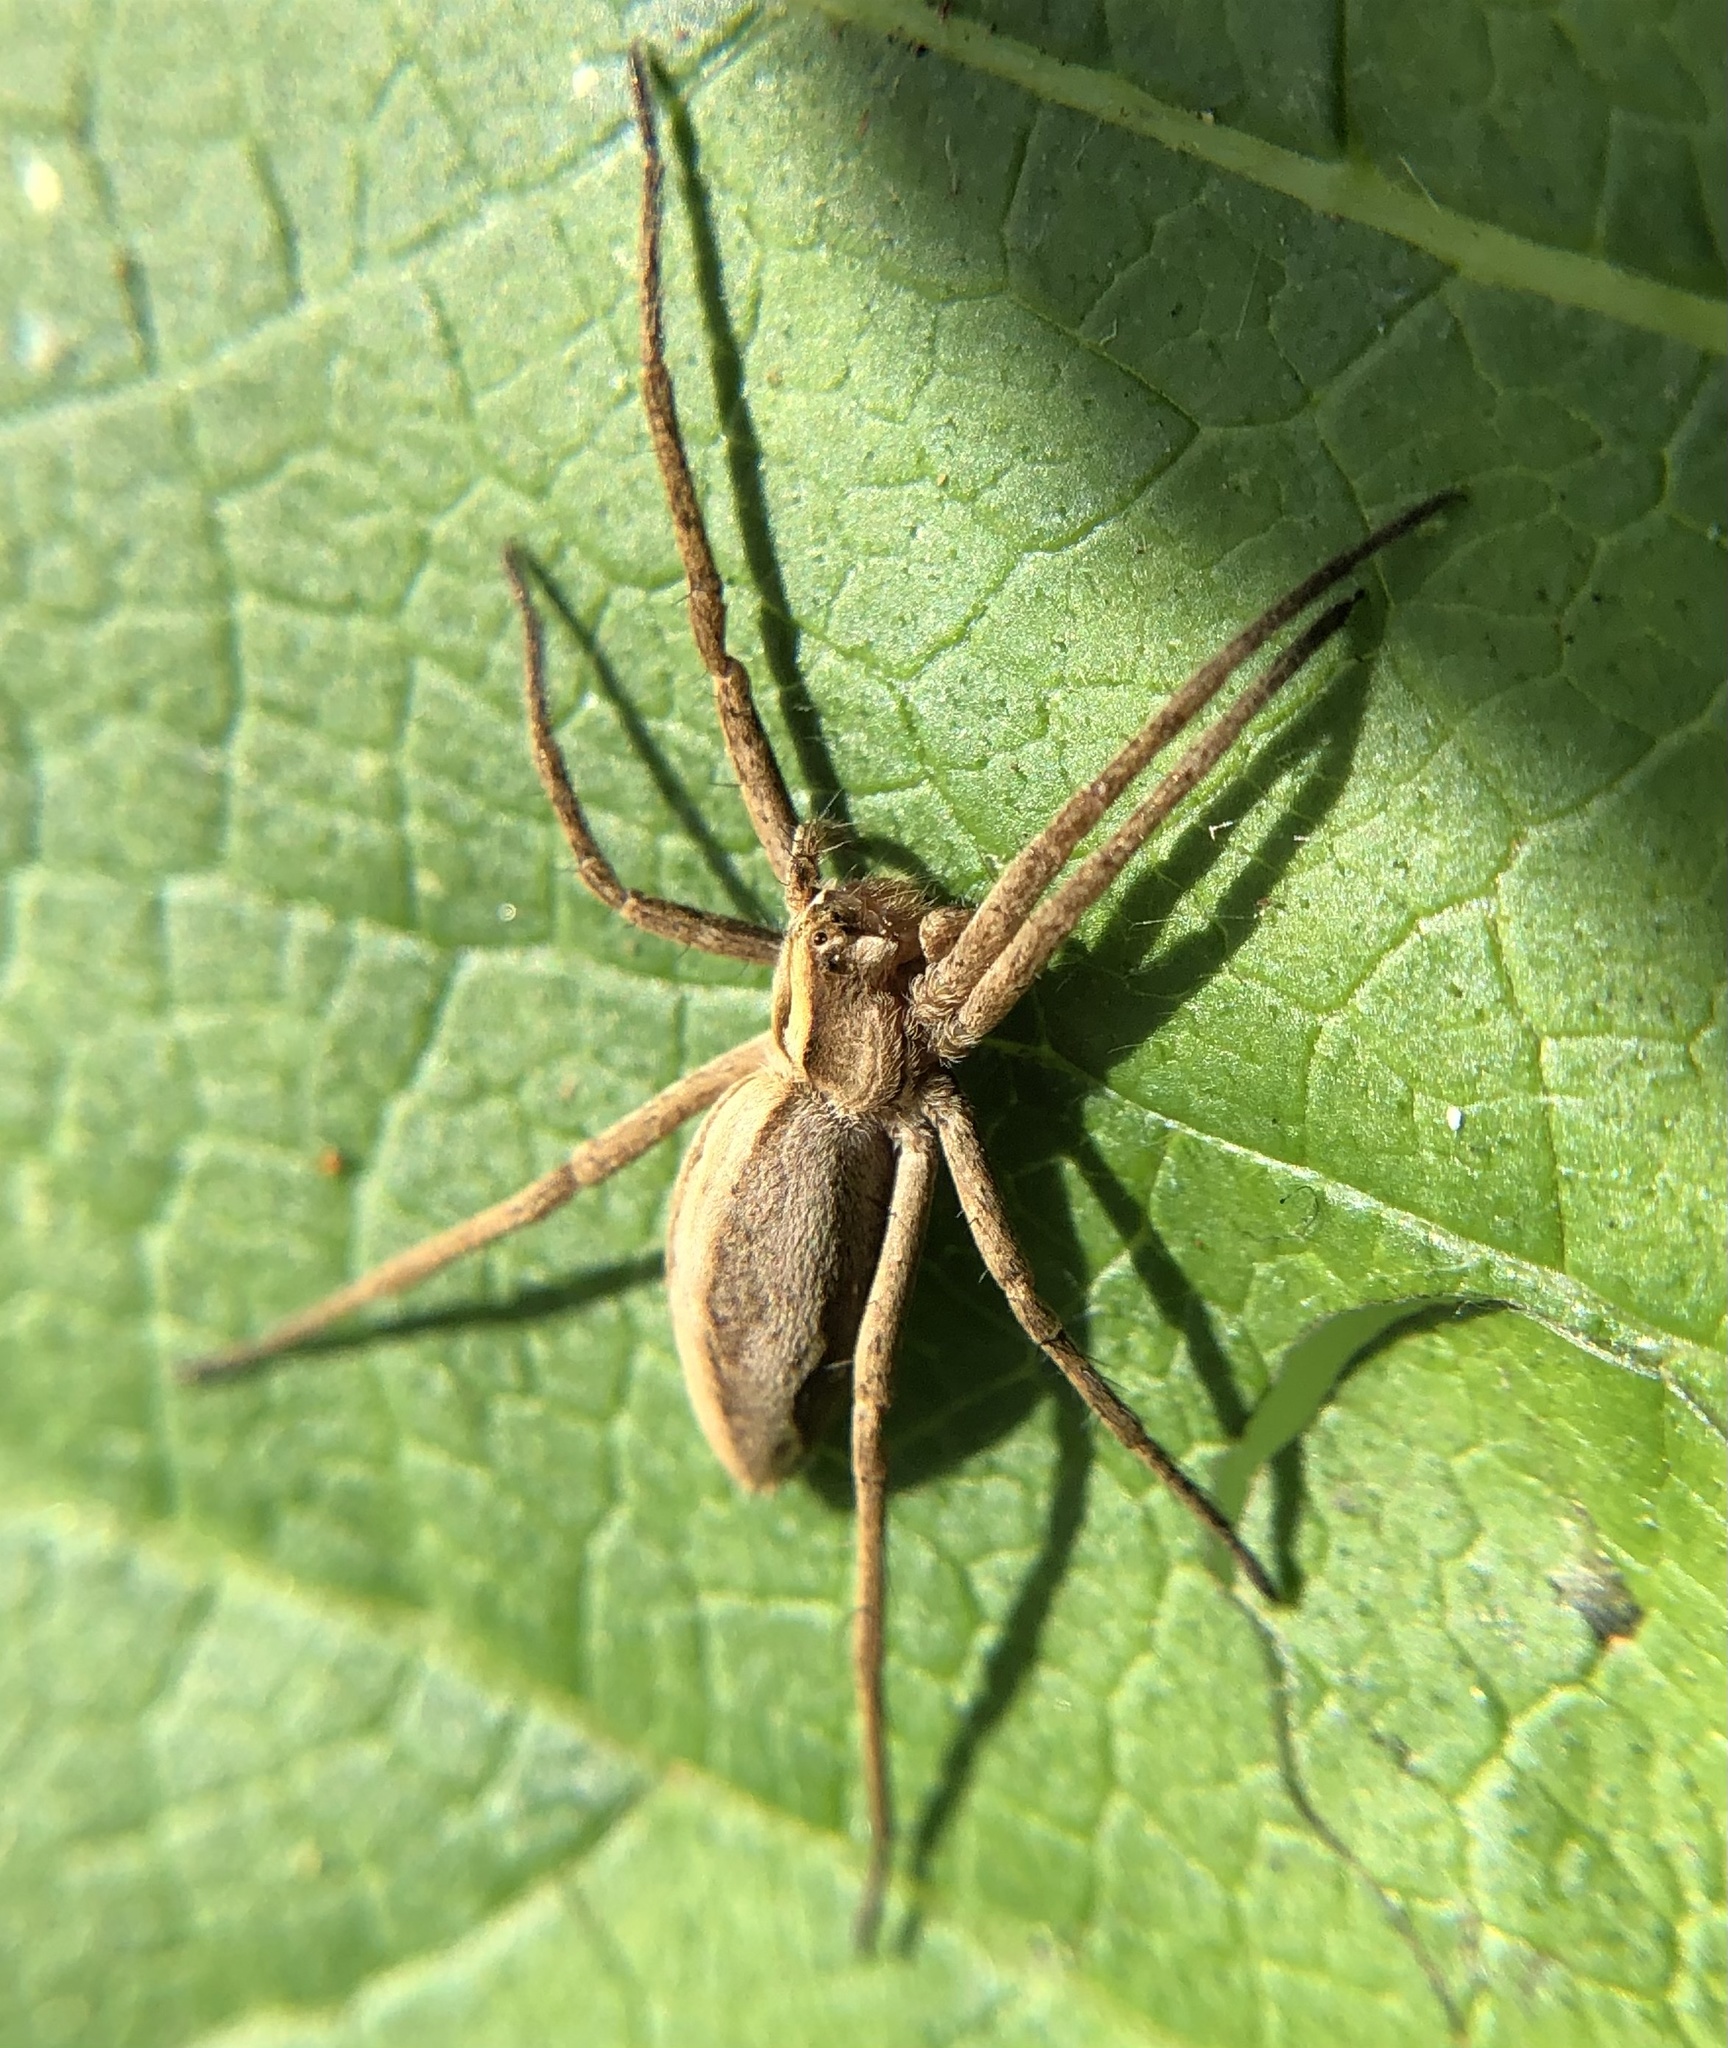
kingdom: Animalia
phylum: Arthropoda
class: Arachnida
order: Araneae
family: Pisauridae
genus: Pisaura
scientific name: Pisaura mirabilis
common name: Tent spider
